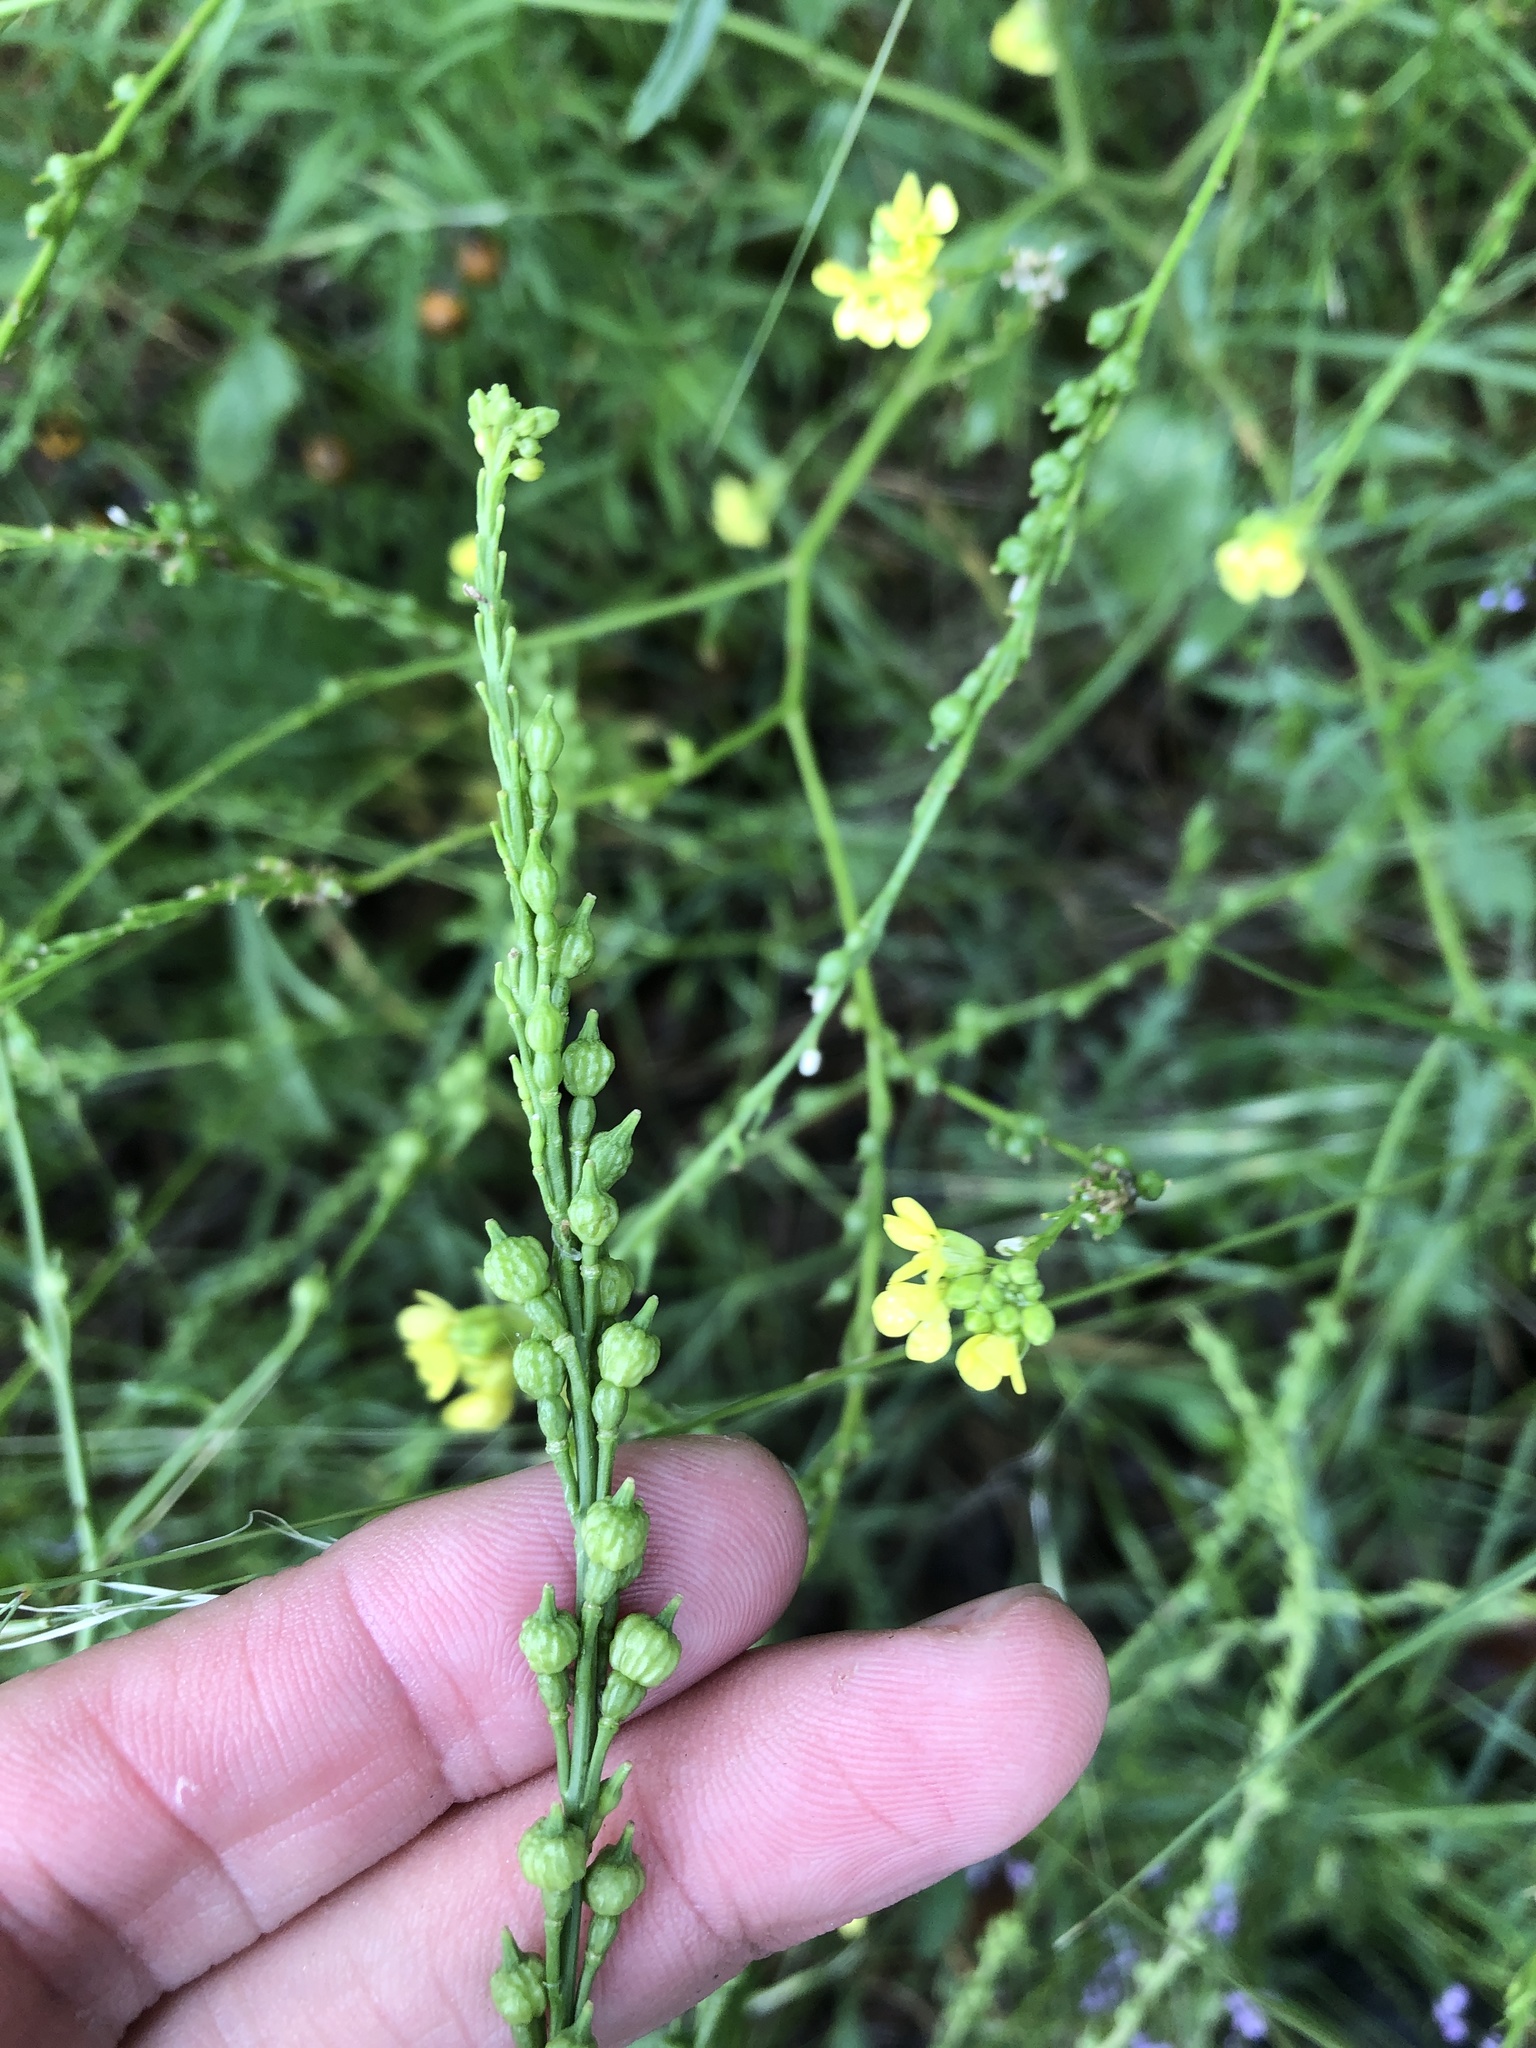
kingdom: Plantae
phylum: Tracheophyta
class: Magnoliopsida
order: Brassicales
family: Brassicaceae
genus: Rapistrum
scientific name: Rapistrum rugosum
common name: Annual bastardcabbage
